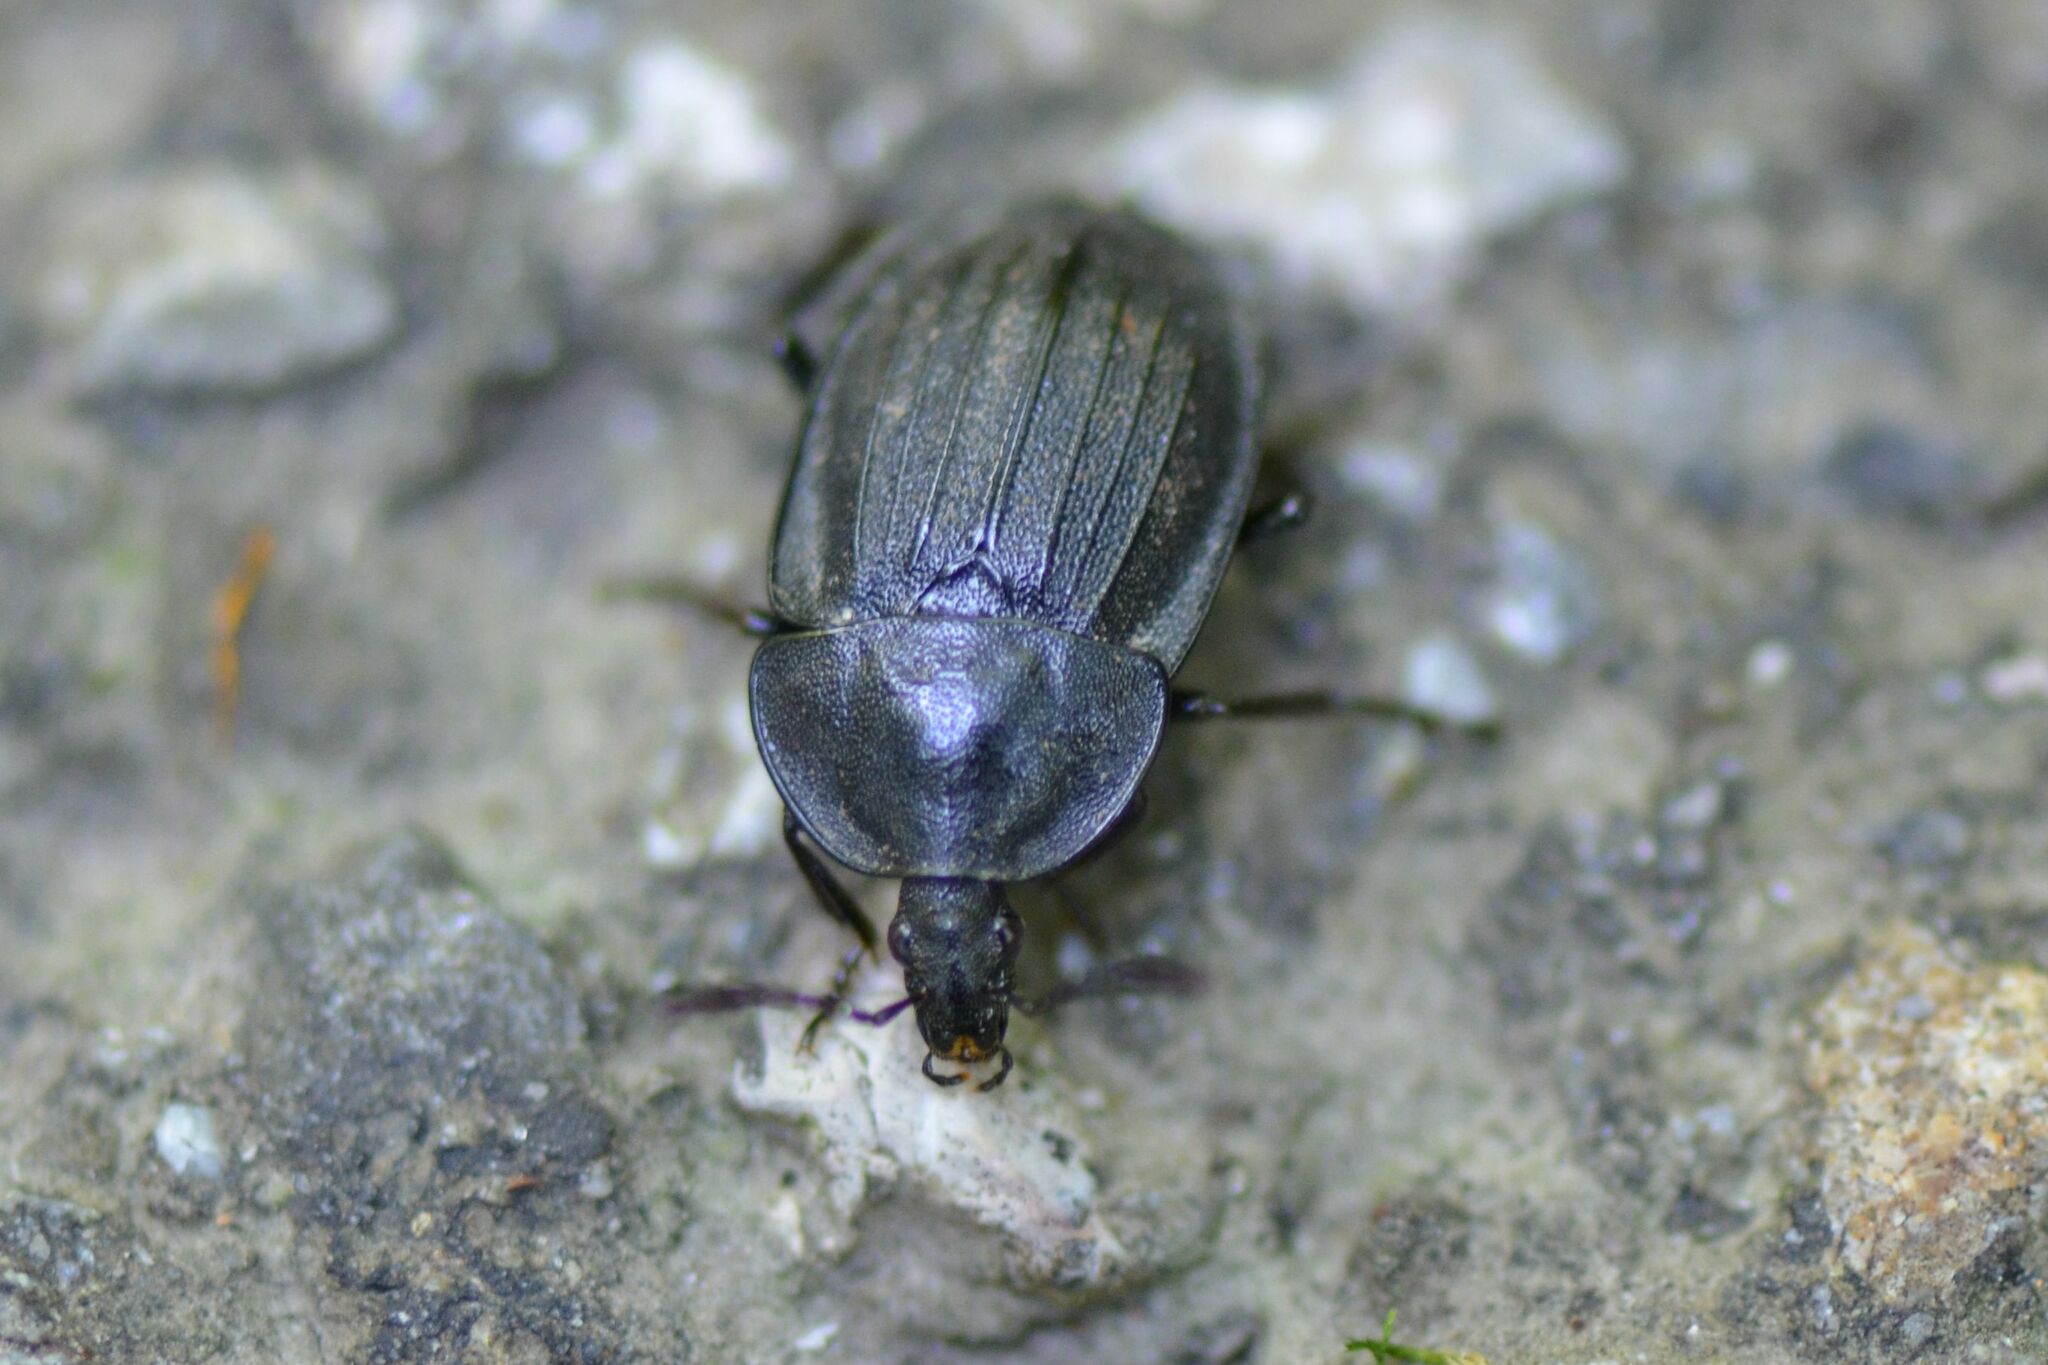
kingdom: Animalia
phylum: Arthropoda
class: Insecta
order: Coleoptera
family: Staphylinidae
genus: Silpha
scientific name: Silpha atrata
